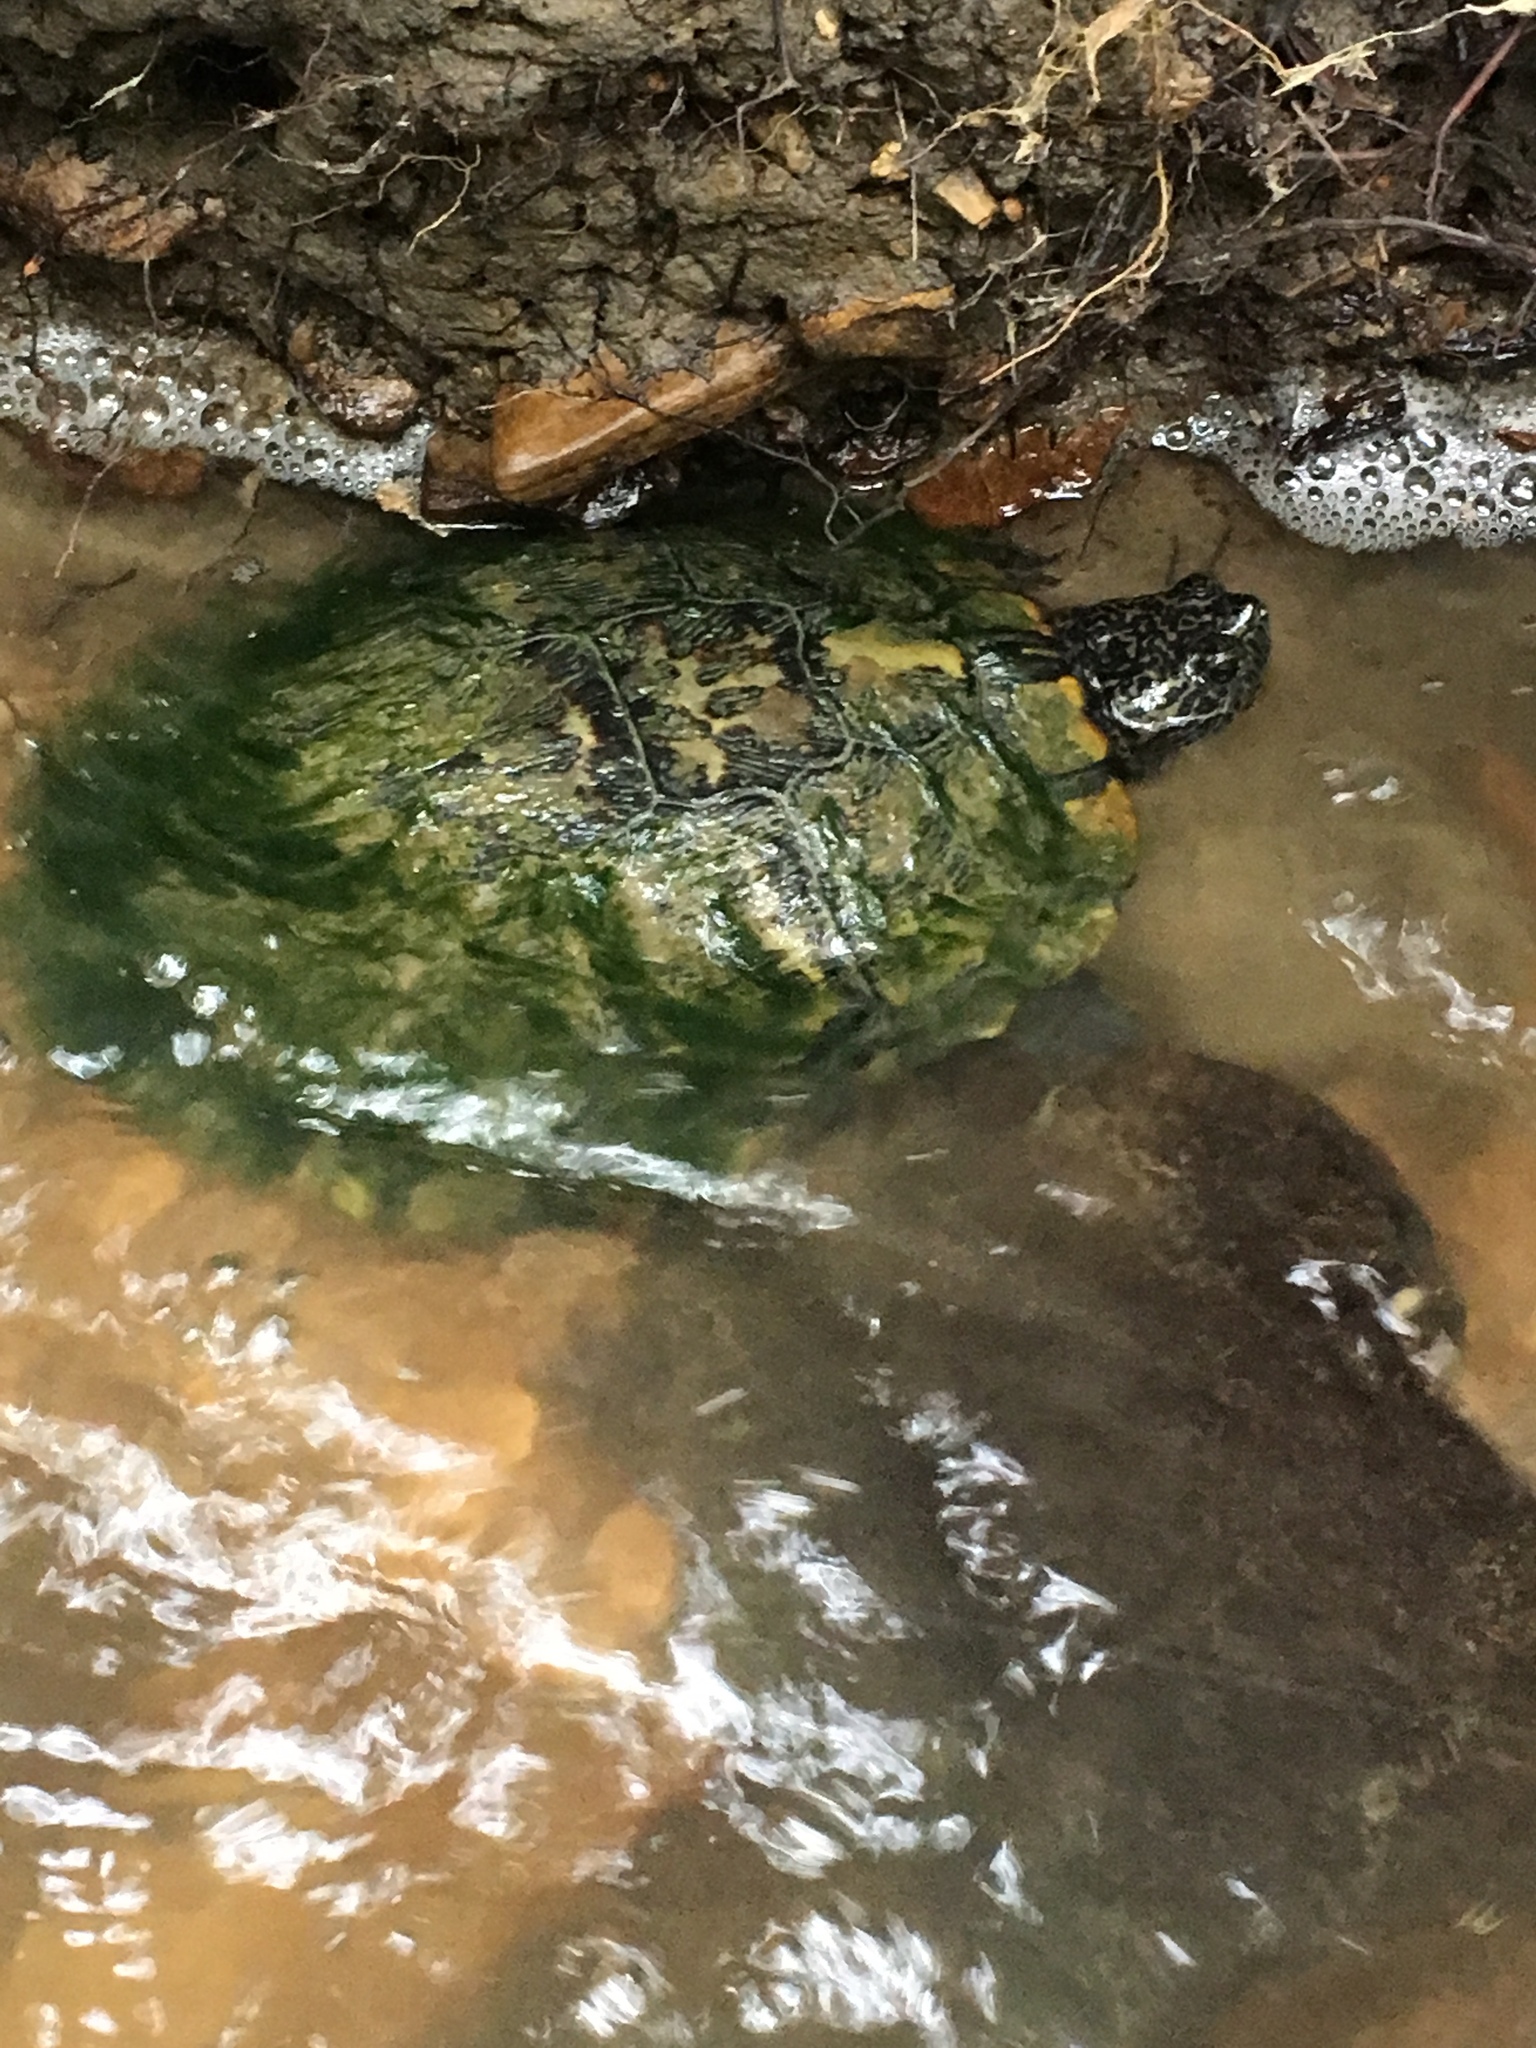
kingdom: Animalia
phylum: Chordata
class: Testudines
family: Emydidae
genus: Trachemys
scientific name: Trachemys scripta
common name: Slider
